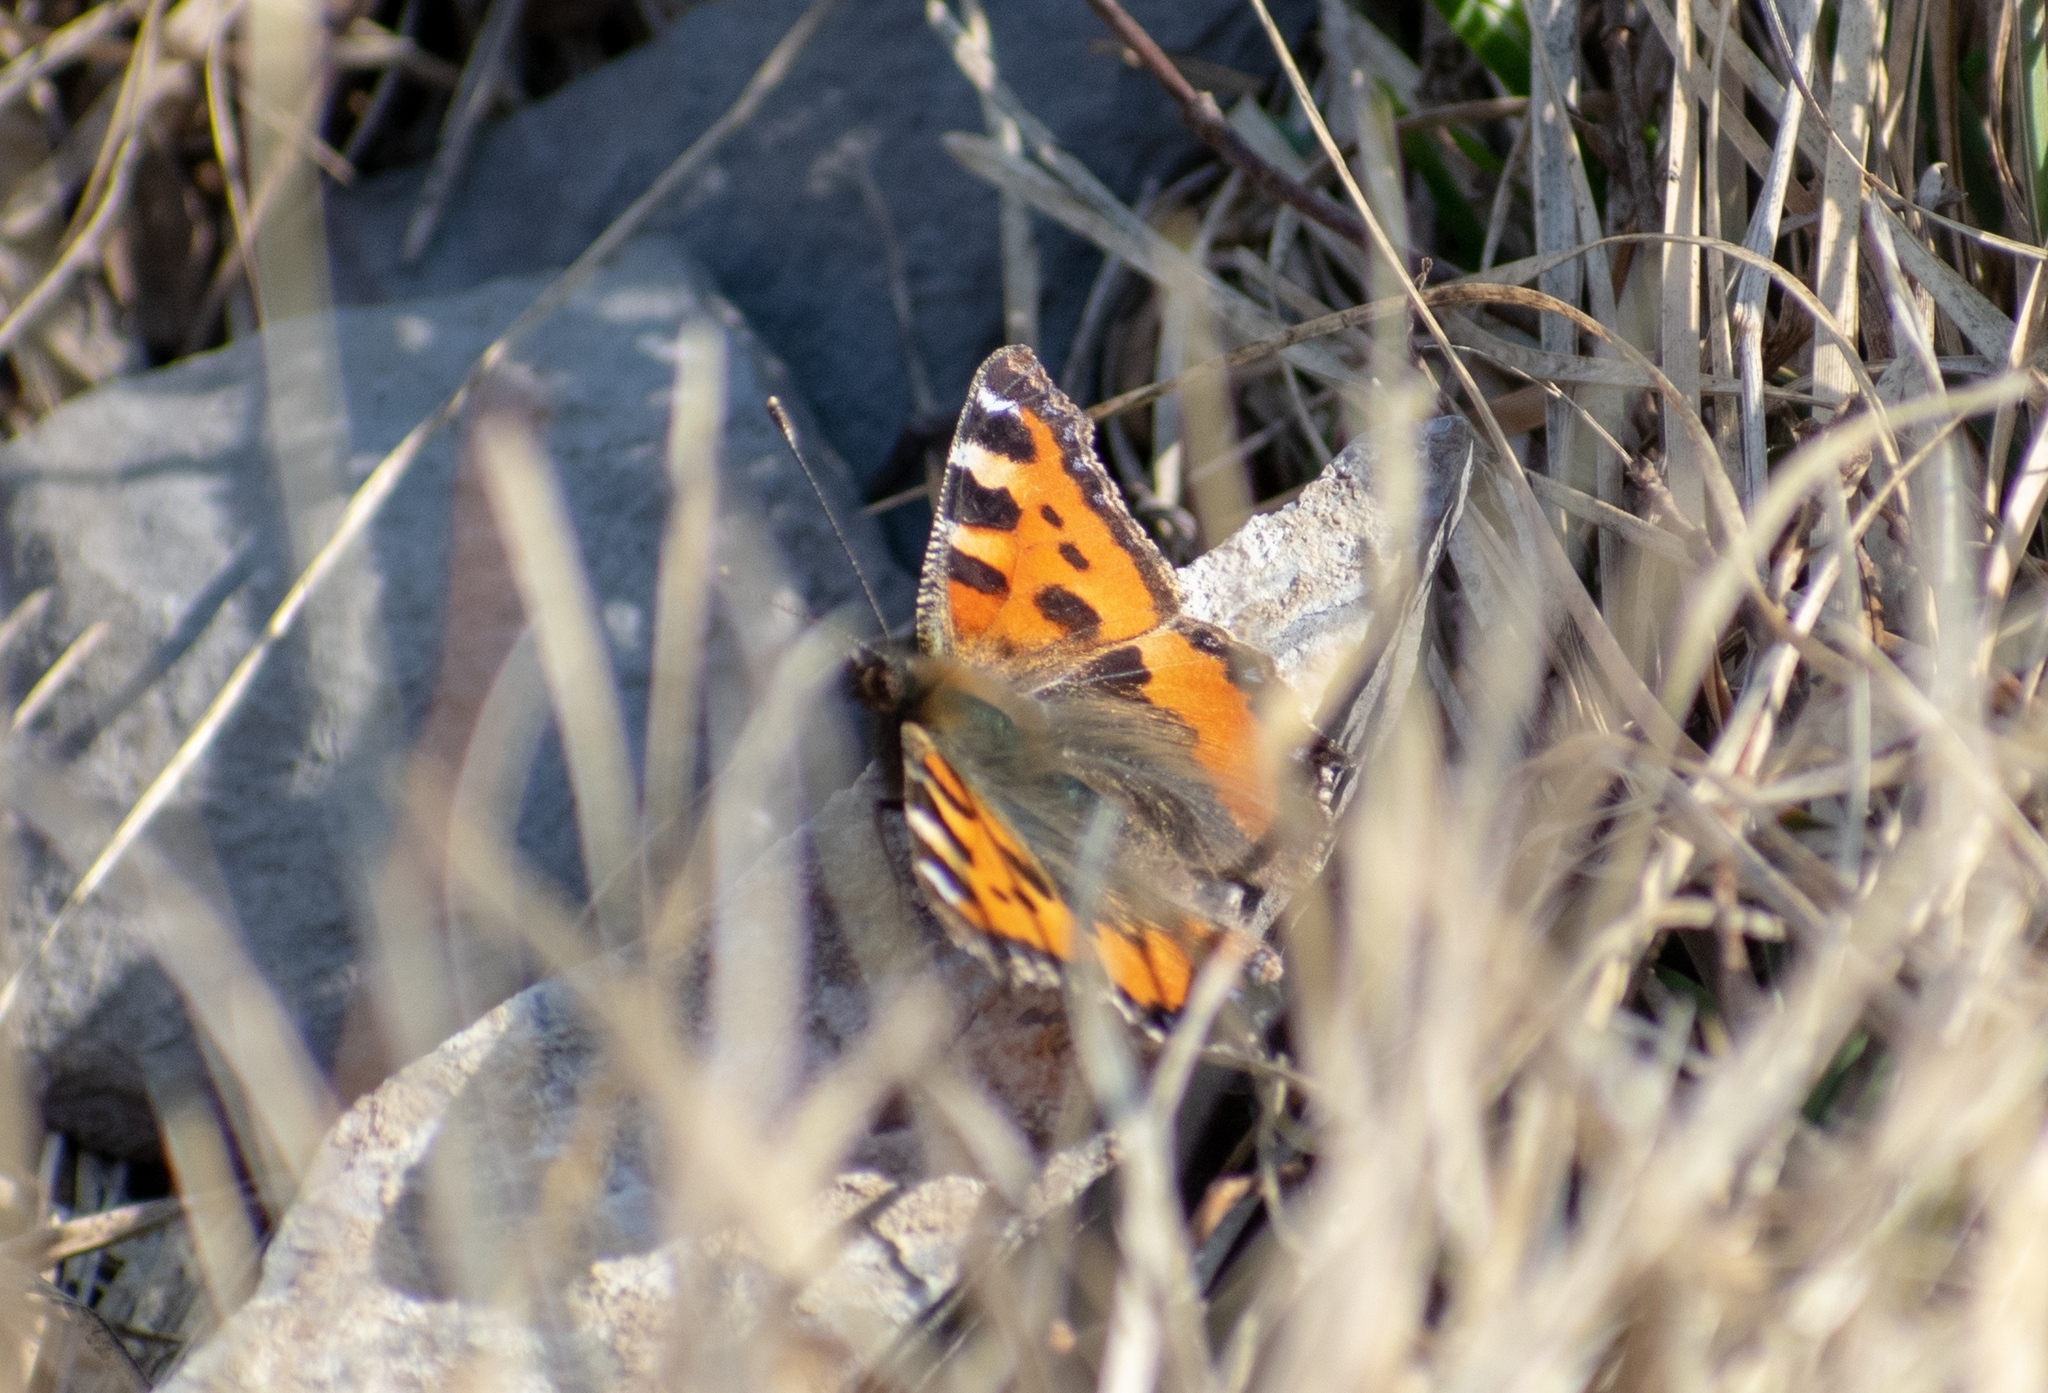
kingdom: Animalia
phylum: Arthropoda
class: Insecta
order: Lepidoptera
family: Nymphalidae
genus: Aglais
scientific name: Aglais urticae
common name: Small tortoiseshell
